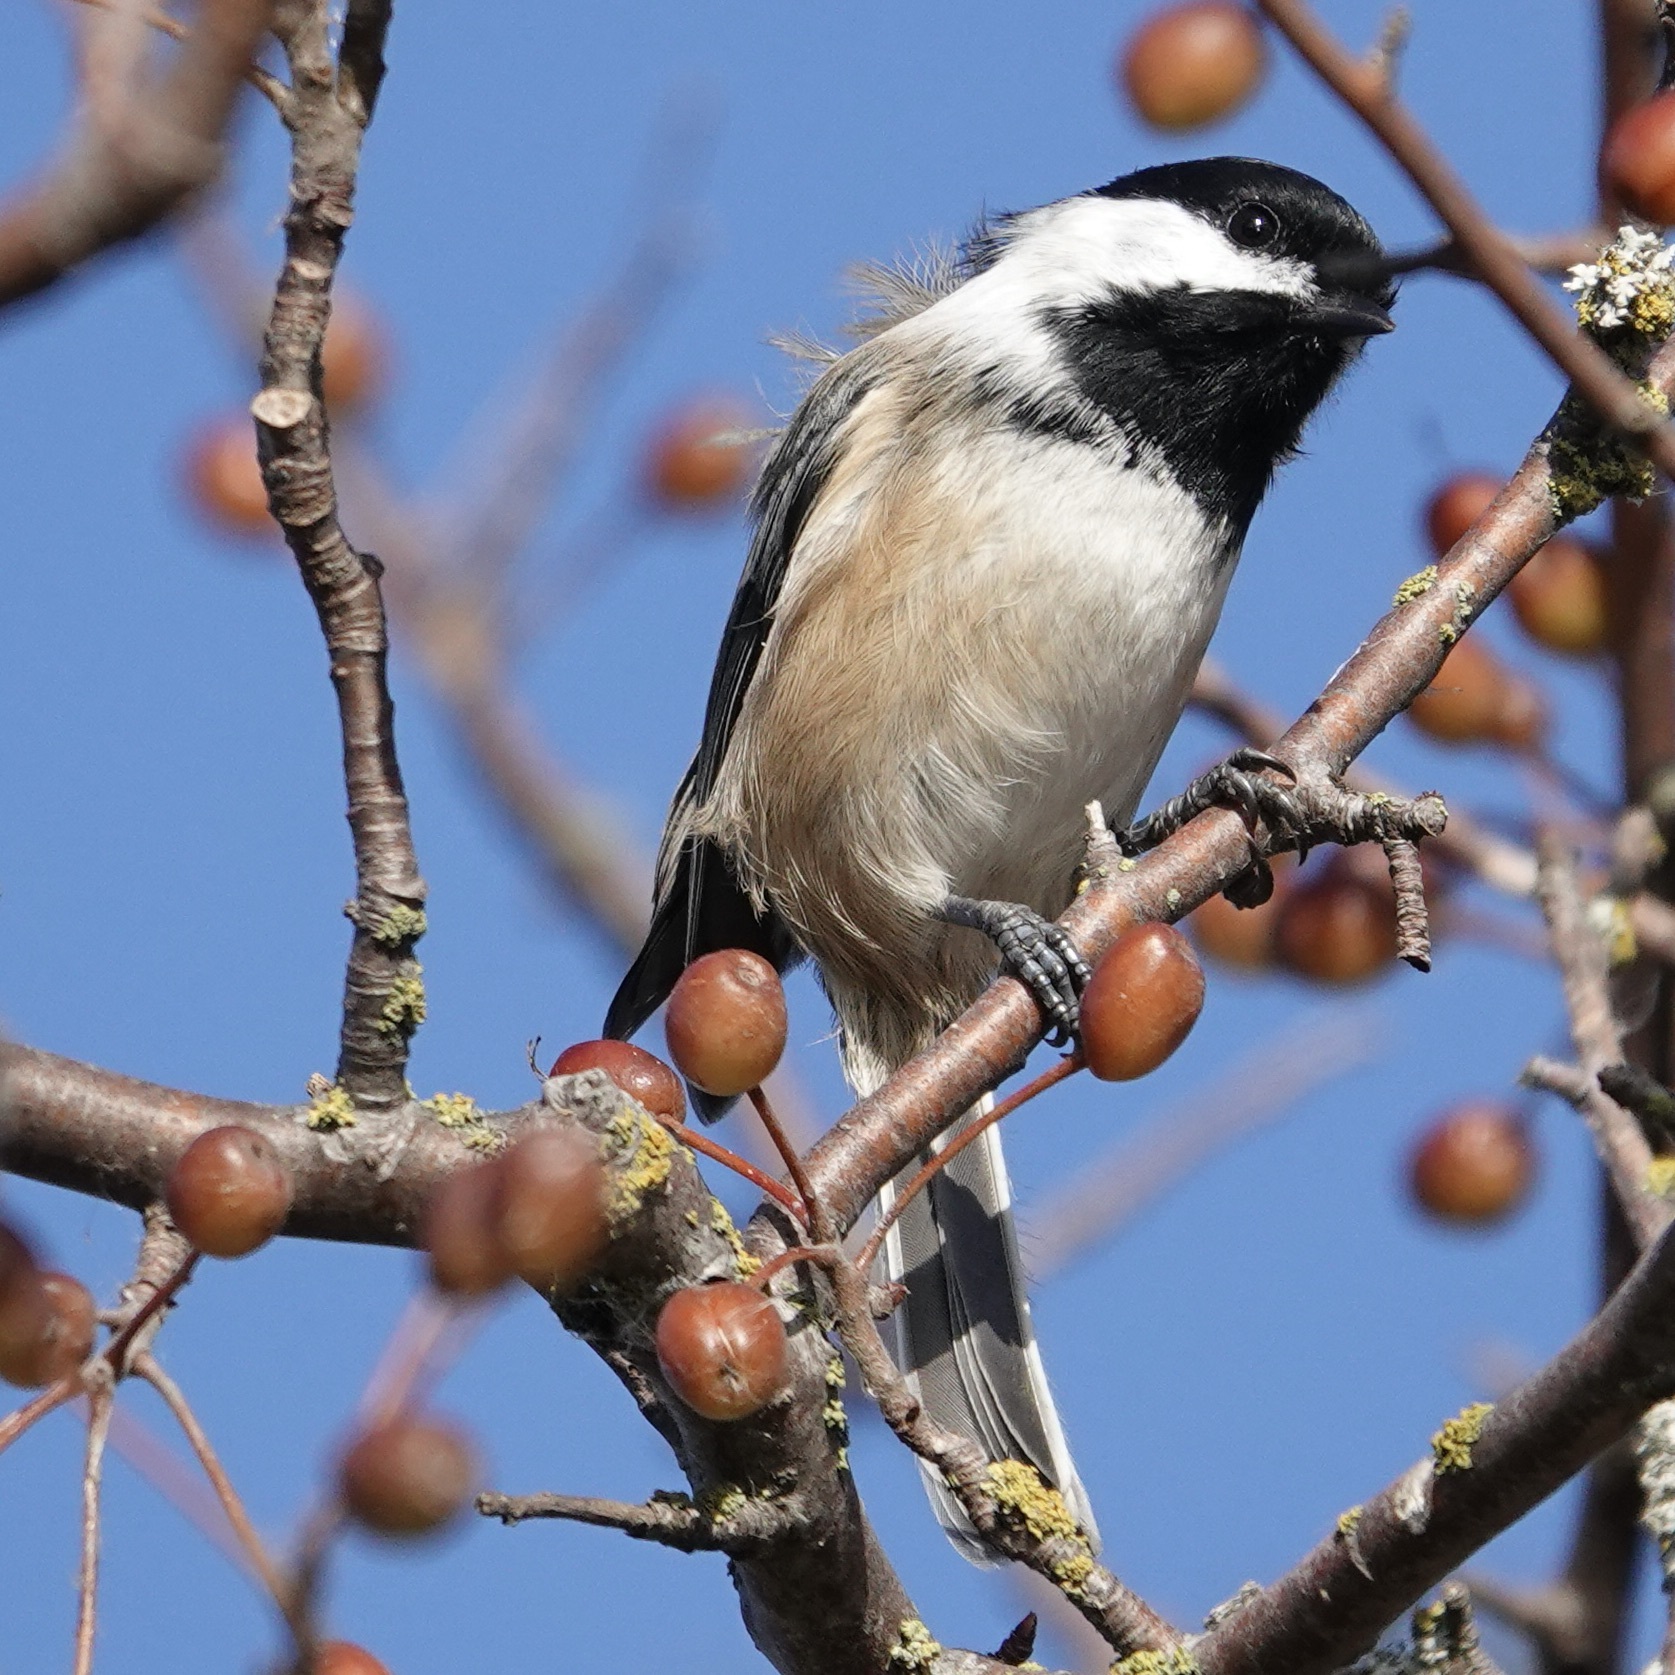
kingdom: Animalia
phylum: Chordata
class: Aves
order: Passeriformes
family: Paridae
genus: Poecile
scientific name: Poecile atricapillus
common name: Black-capped chickadee
